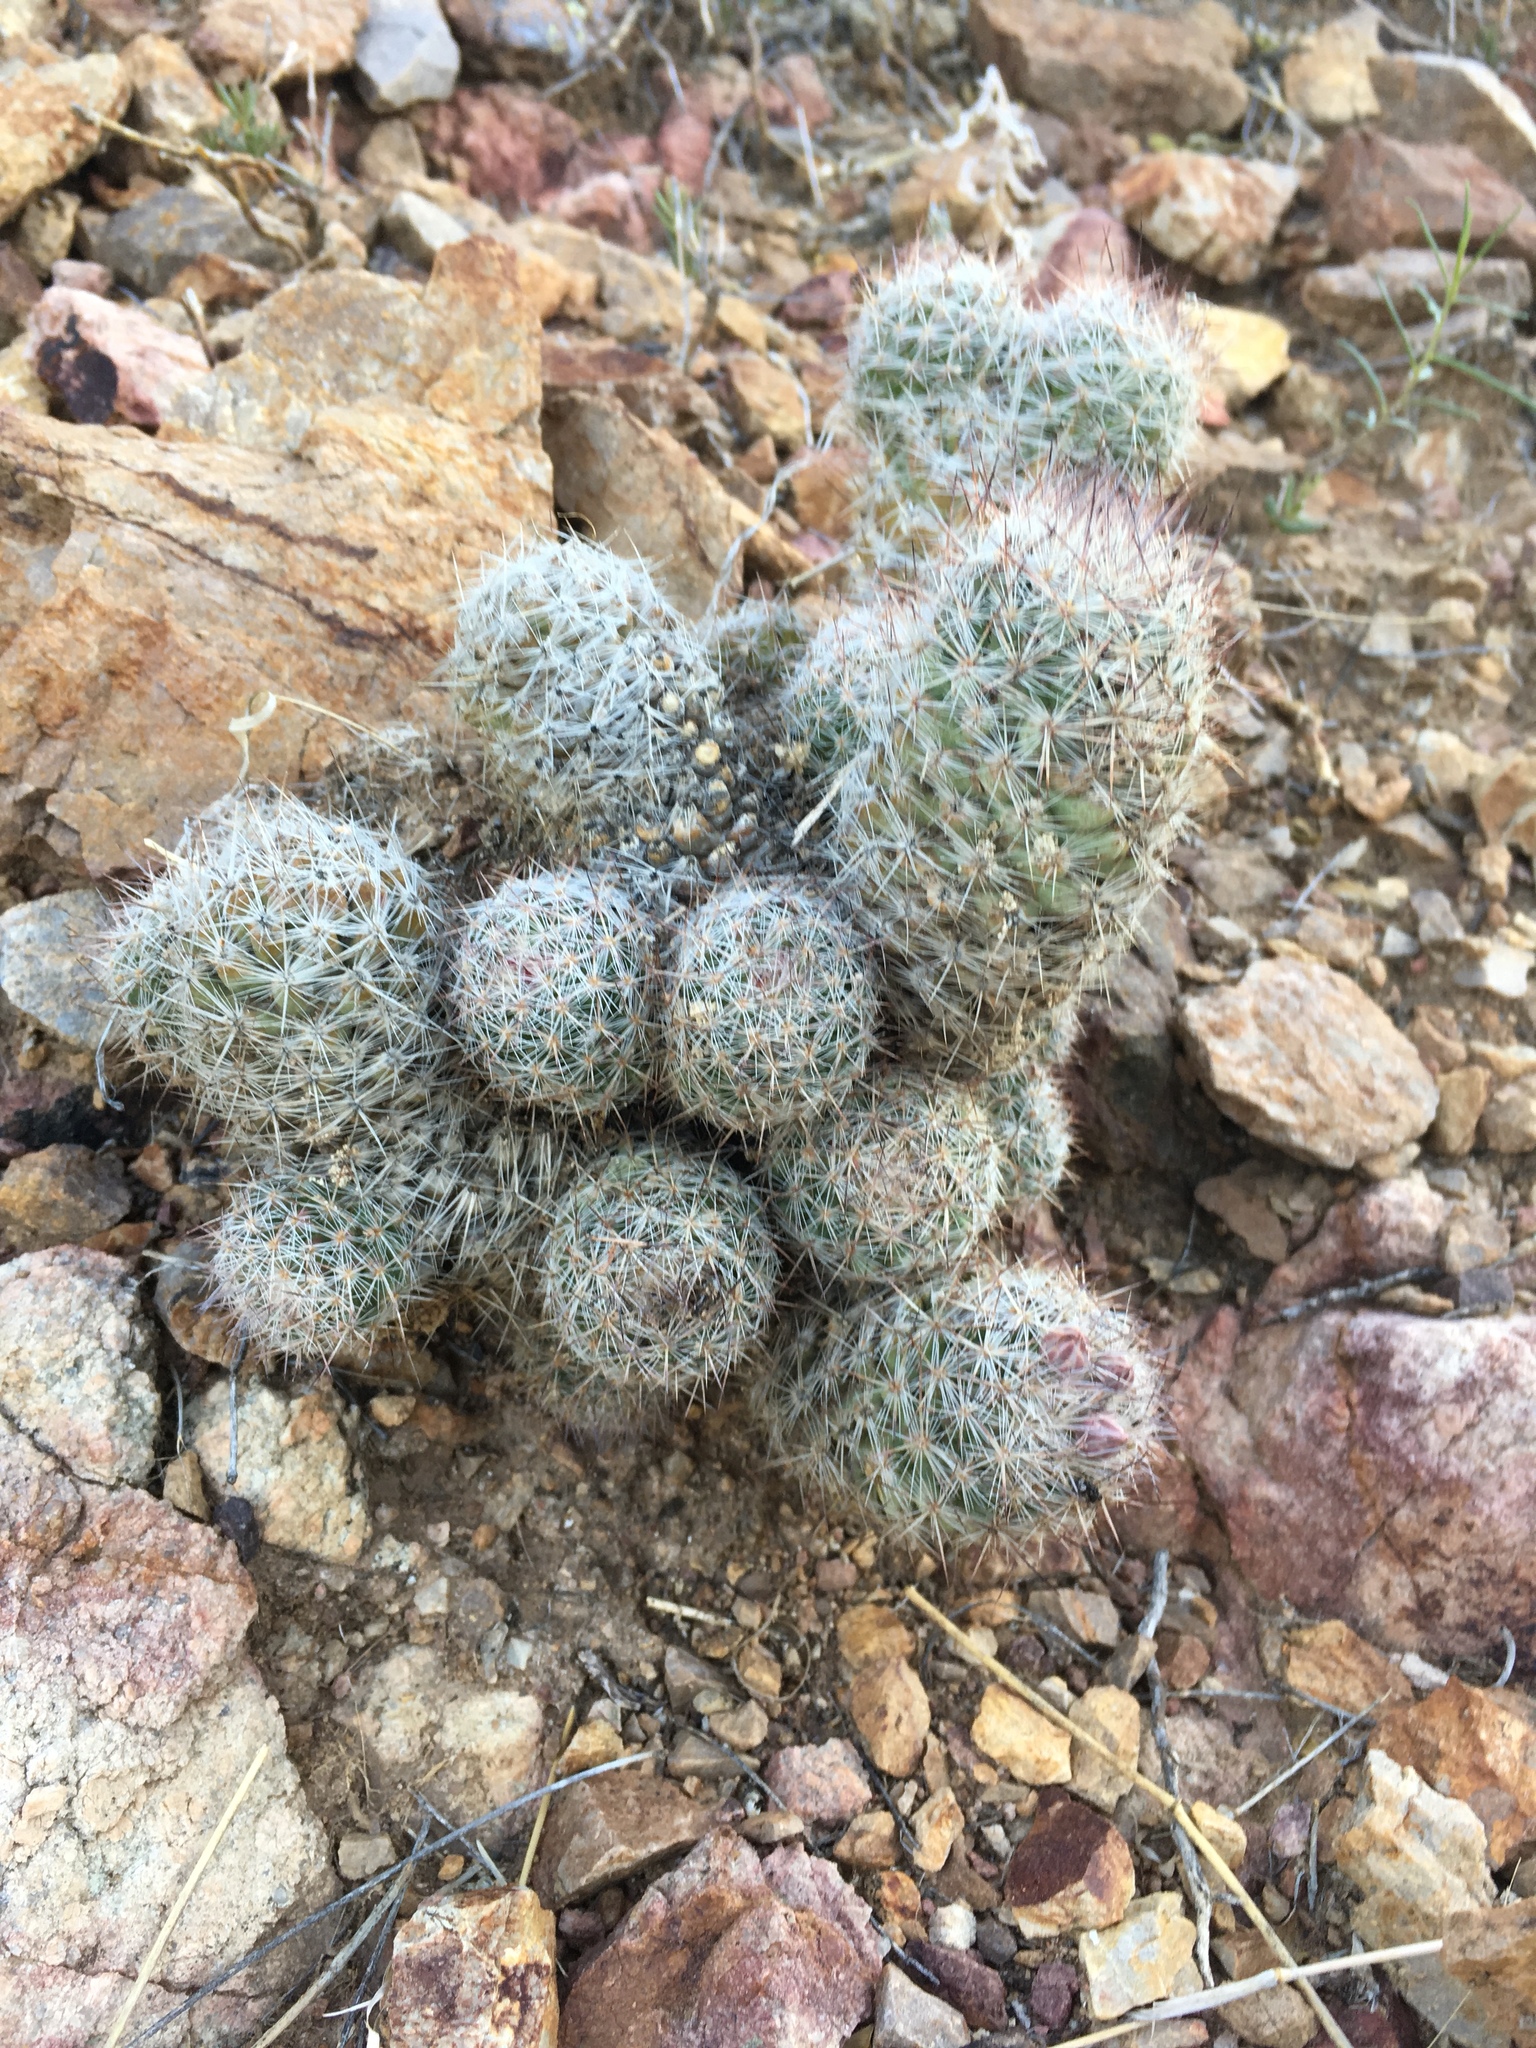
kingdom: Plantae
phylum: Tracheophyta
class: Magnoliopsida
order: Caryophyllales
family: Cactaceae
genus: Pelecyphora
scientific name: Pelecyphora tuberculosa
